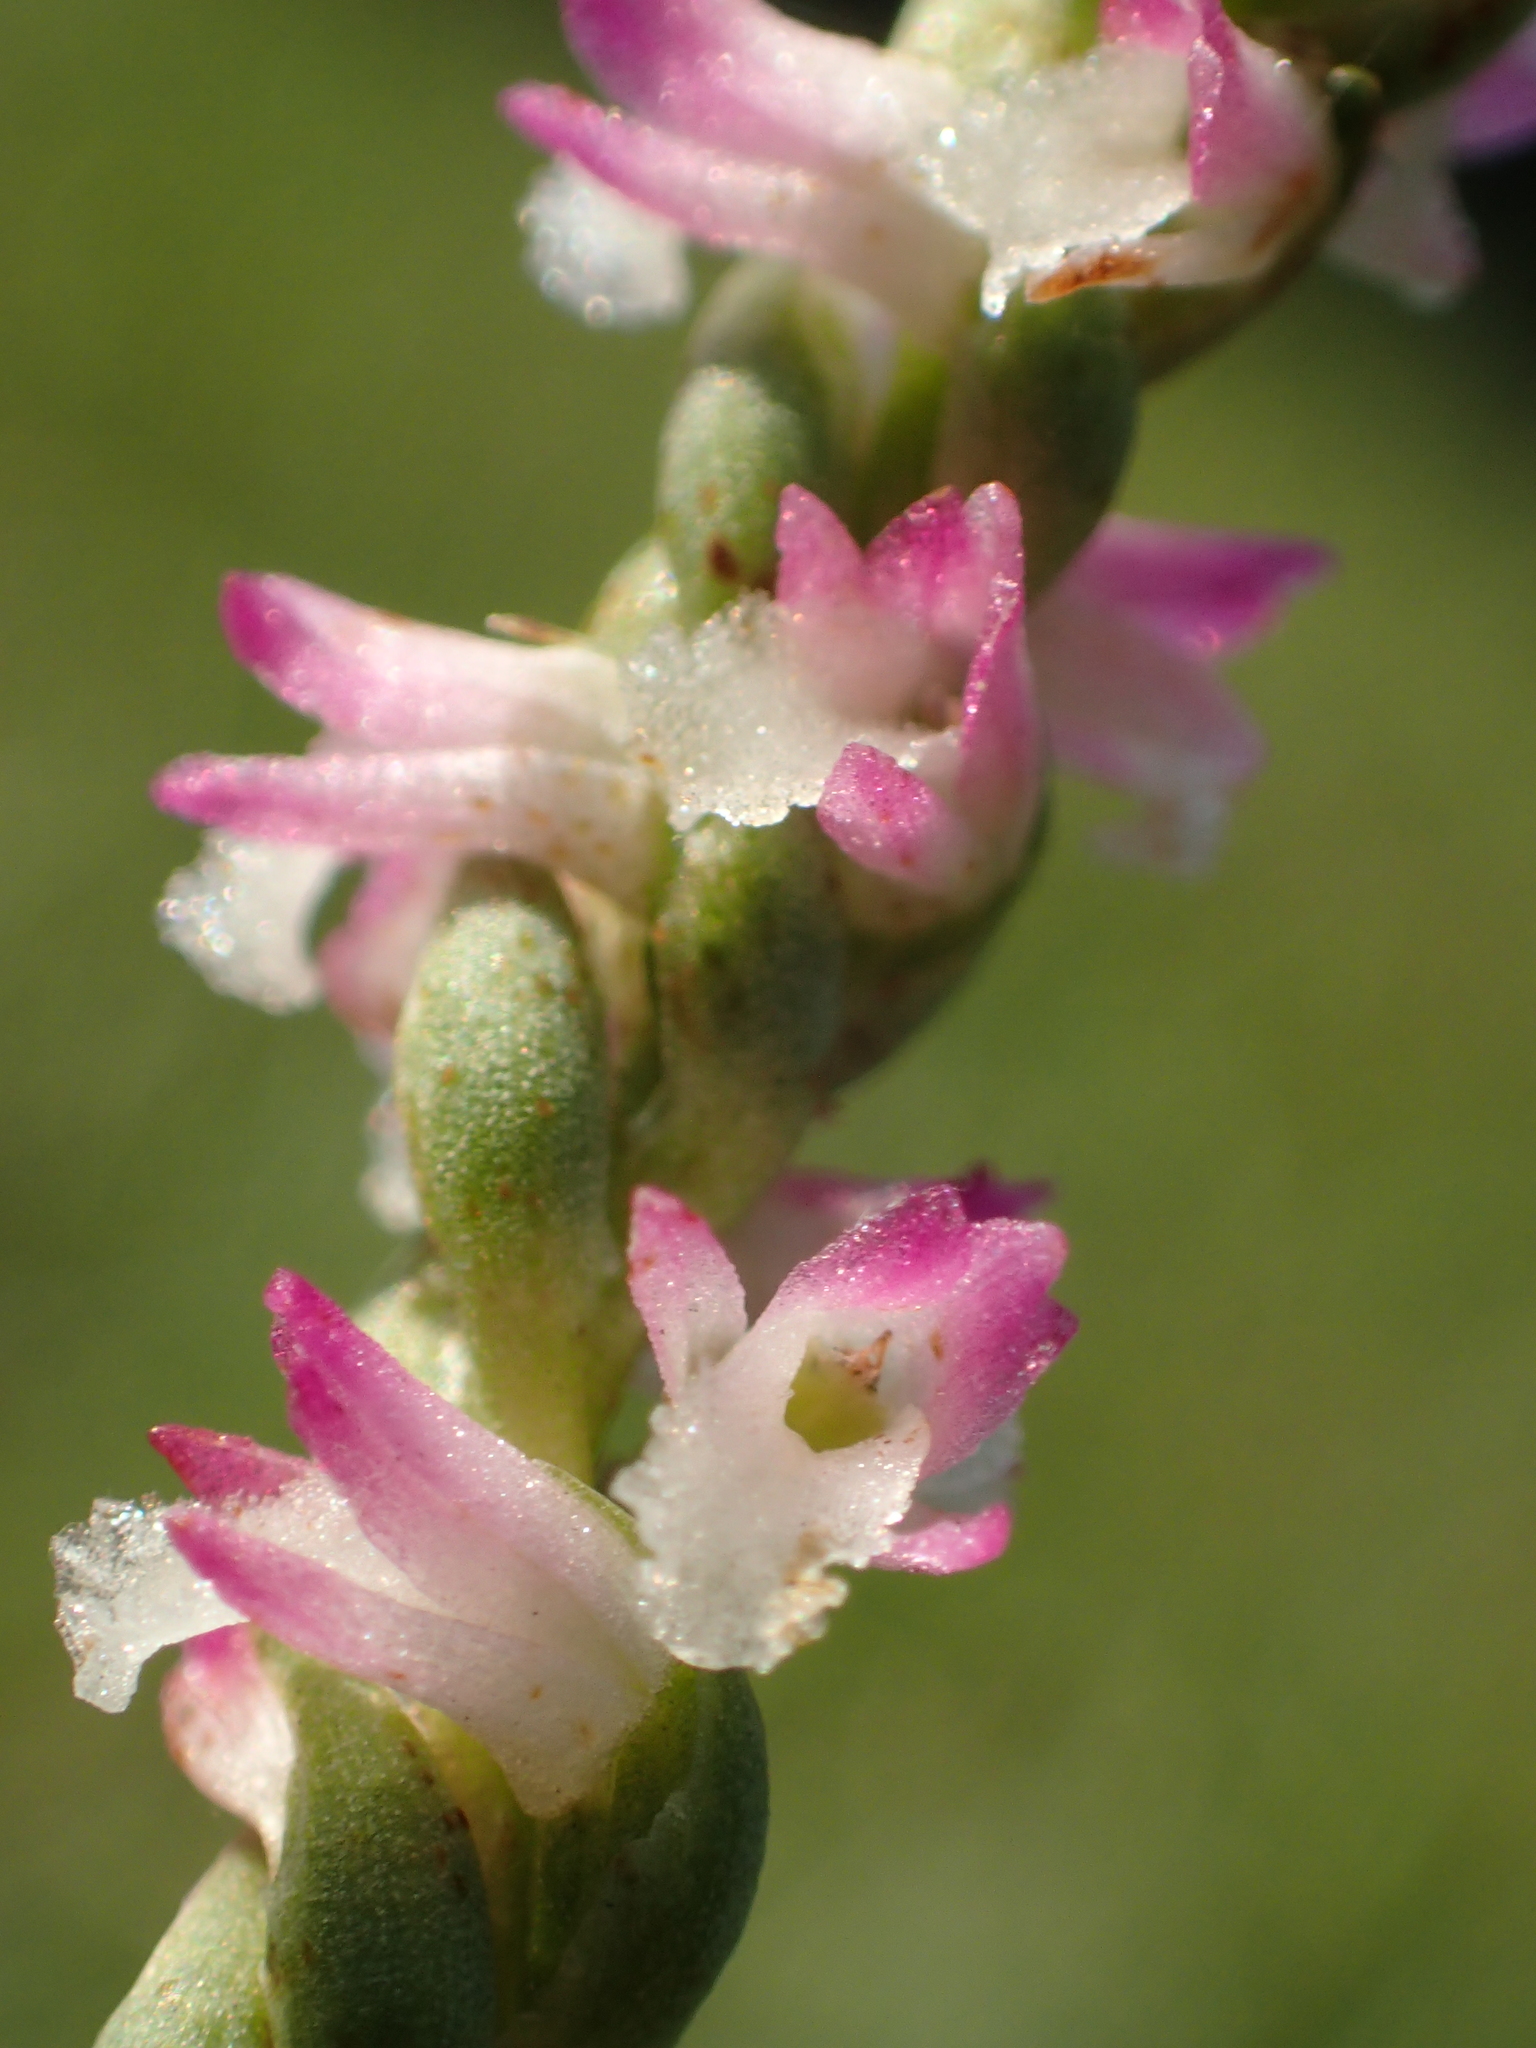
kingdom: Plantae
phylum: Tracheophyta
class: Liliopsida
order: Asparagales
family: Orchidaceae
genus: Spiranthes
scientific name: Spiranthes sinensis
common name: Chinese spiranthes
